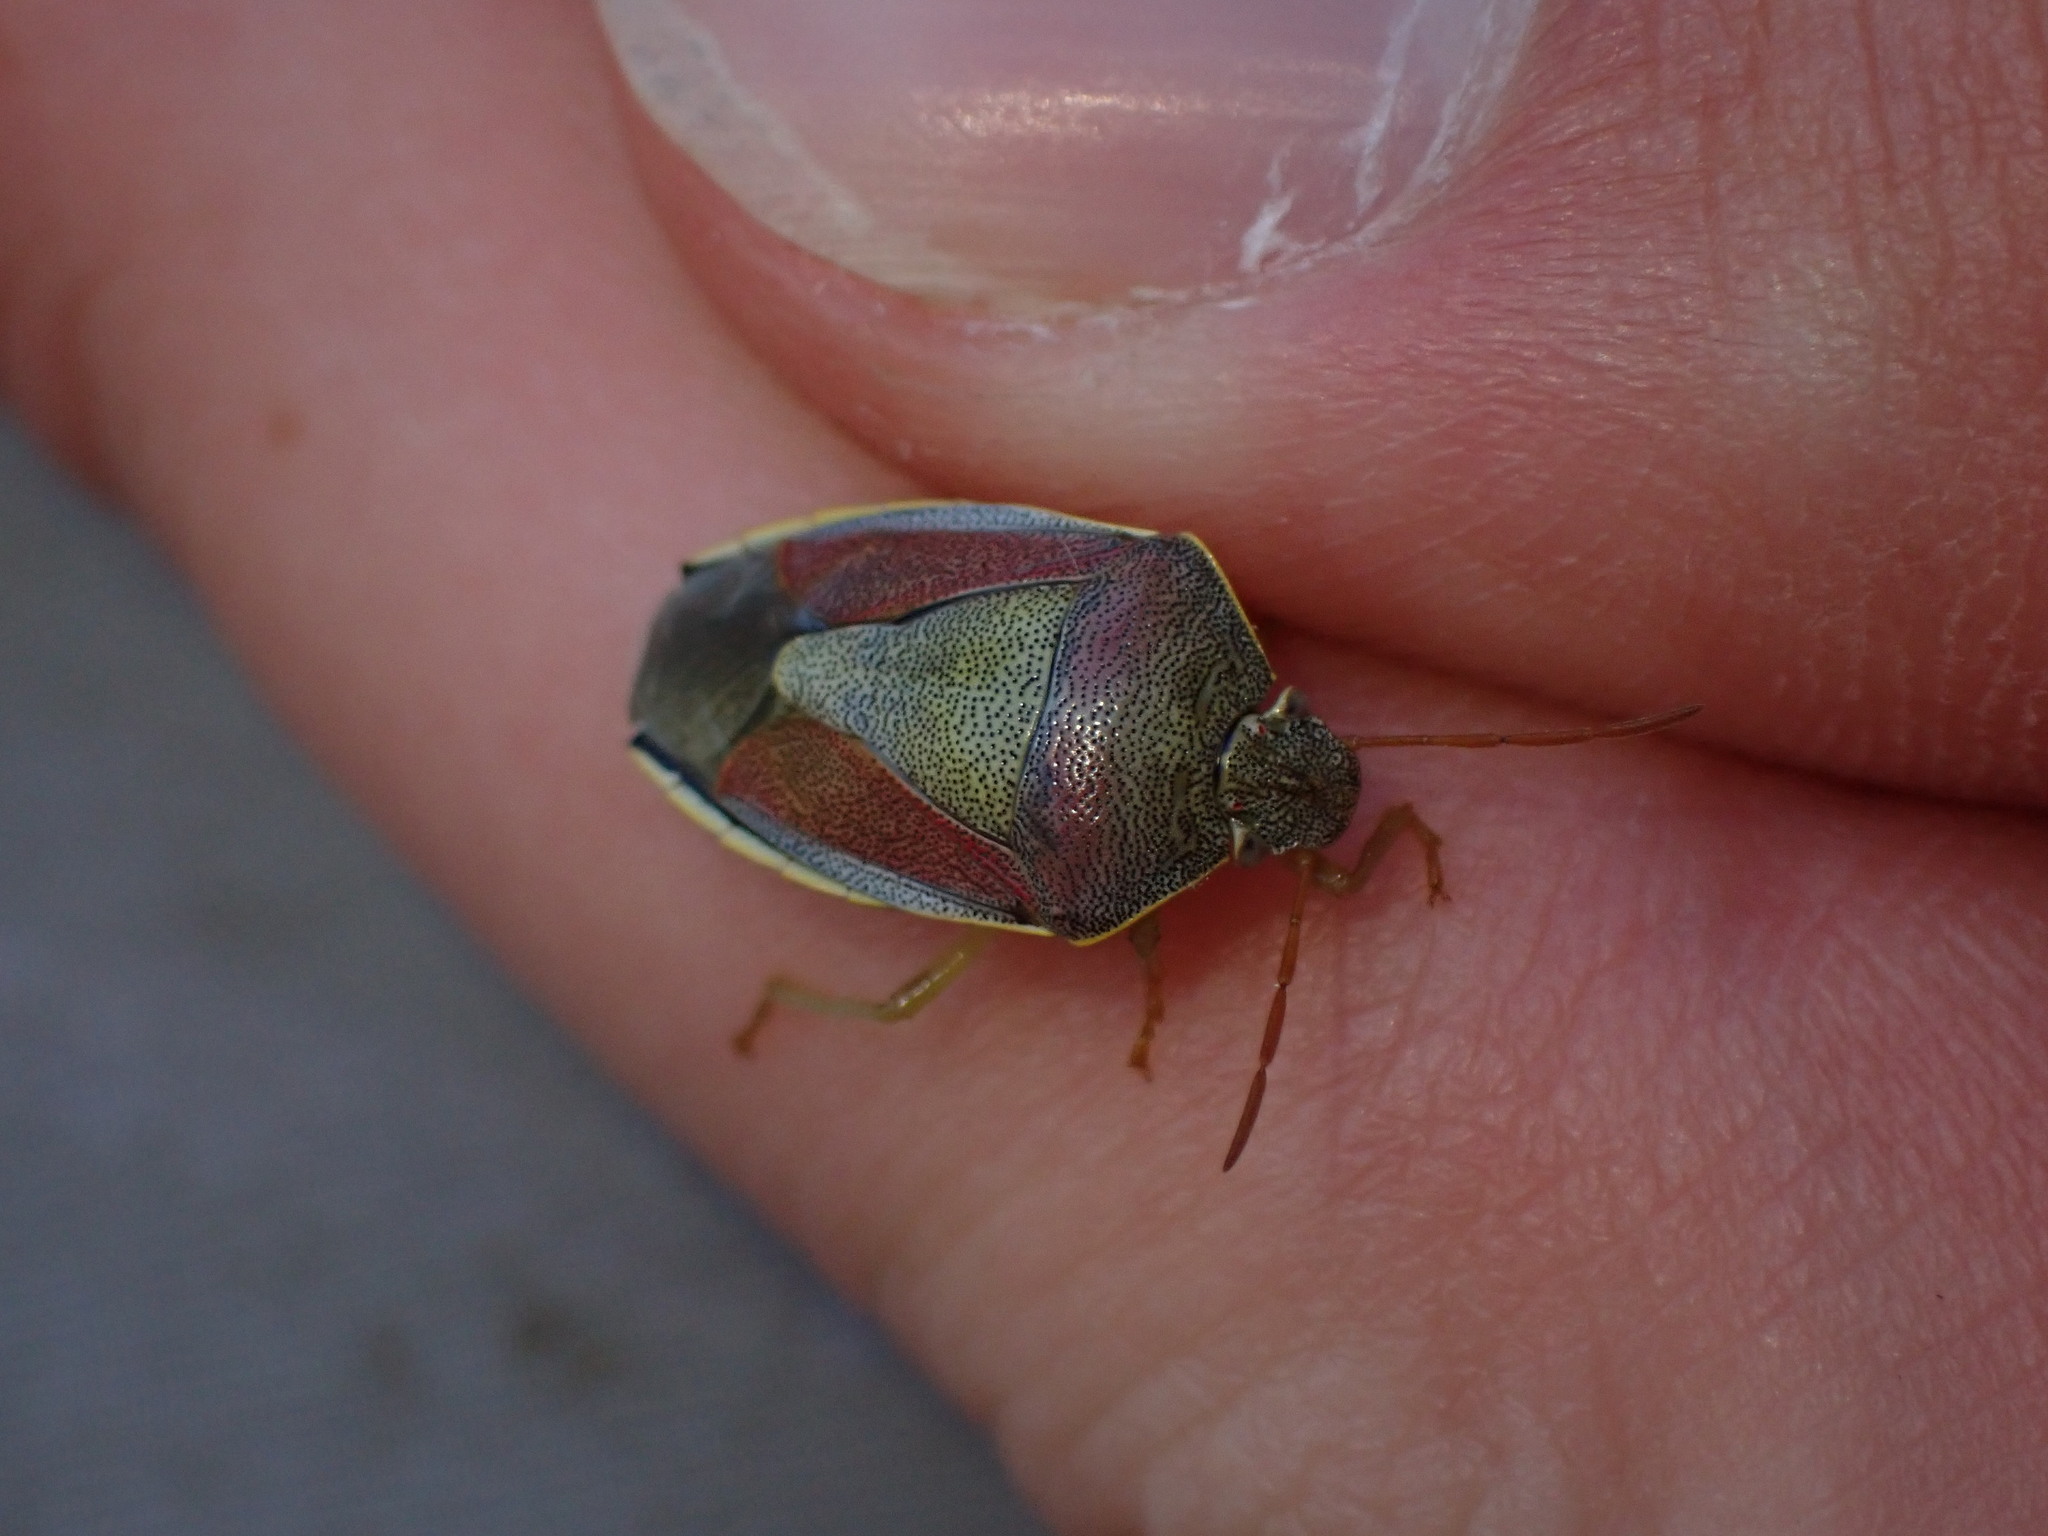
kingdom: Animalia
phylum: Arthropoda
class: Insecta
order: Hemiptera
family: Pentatomidae
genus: Piezodorus
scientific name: Piezodorus lituratus
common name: Stink bug
